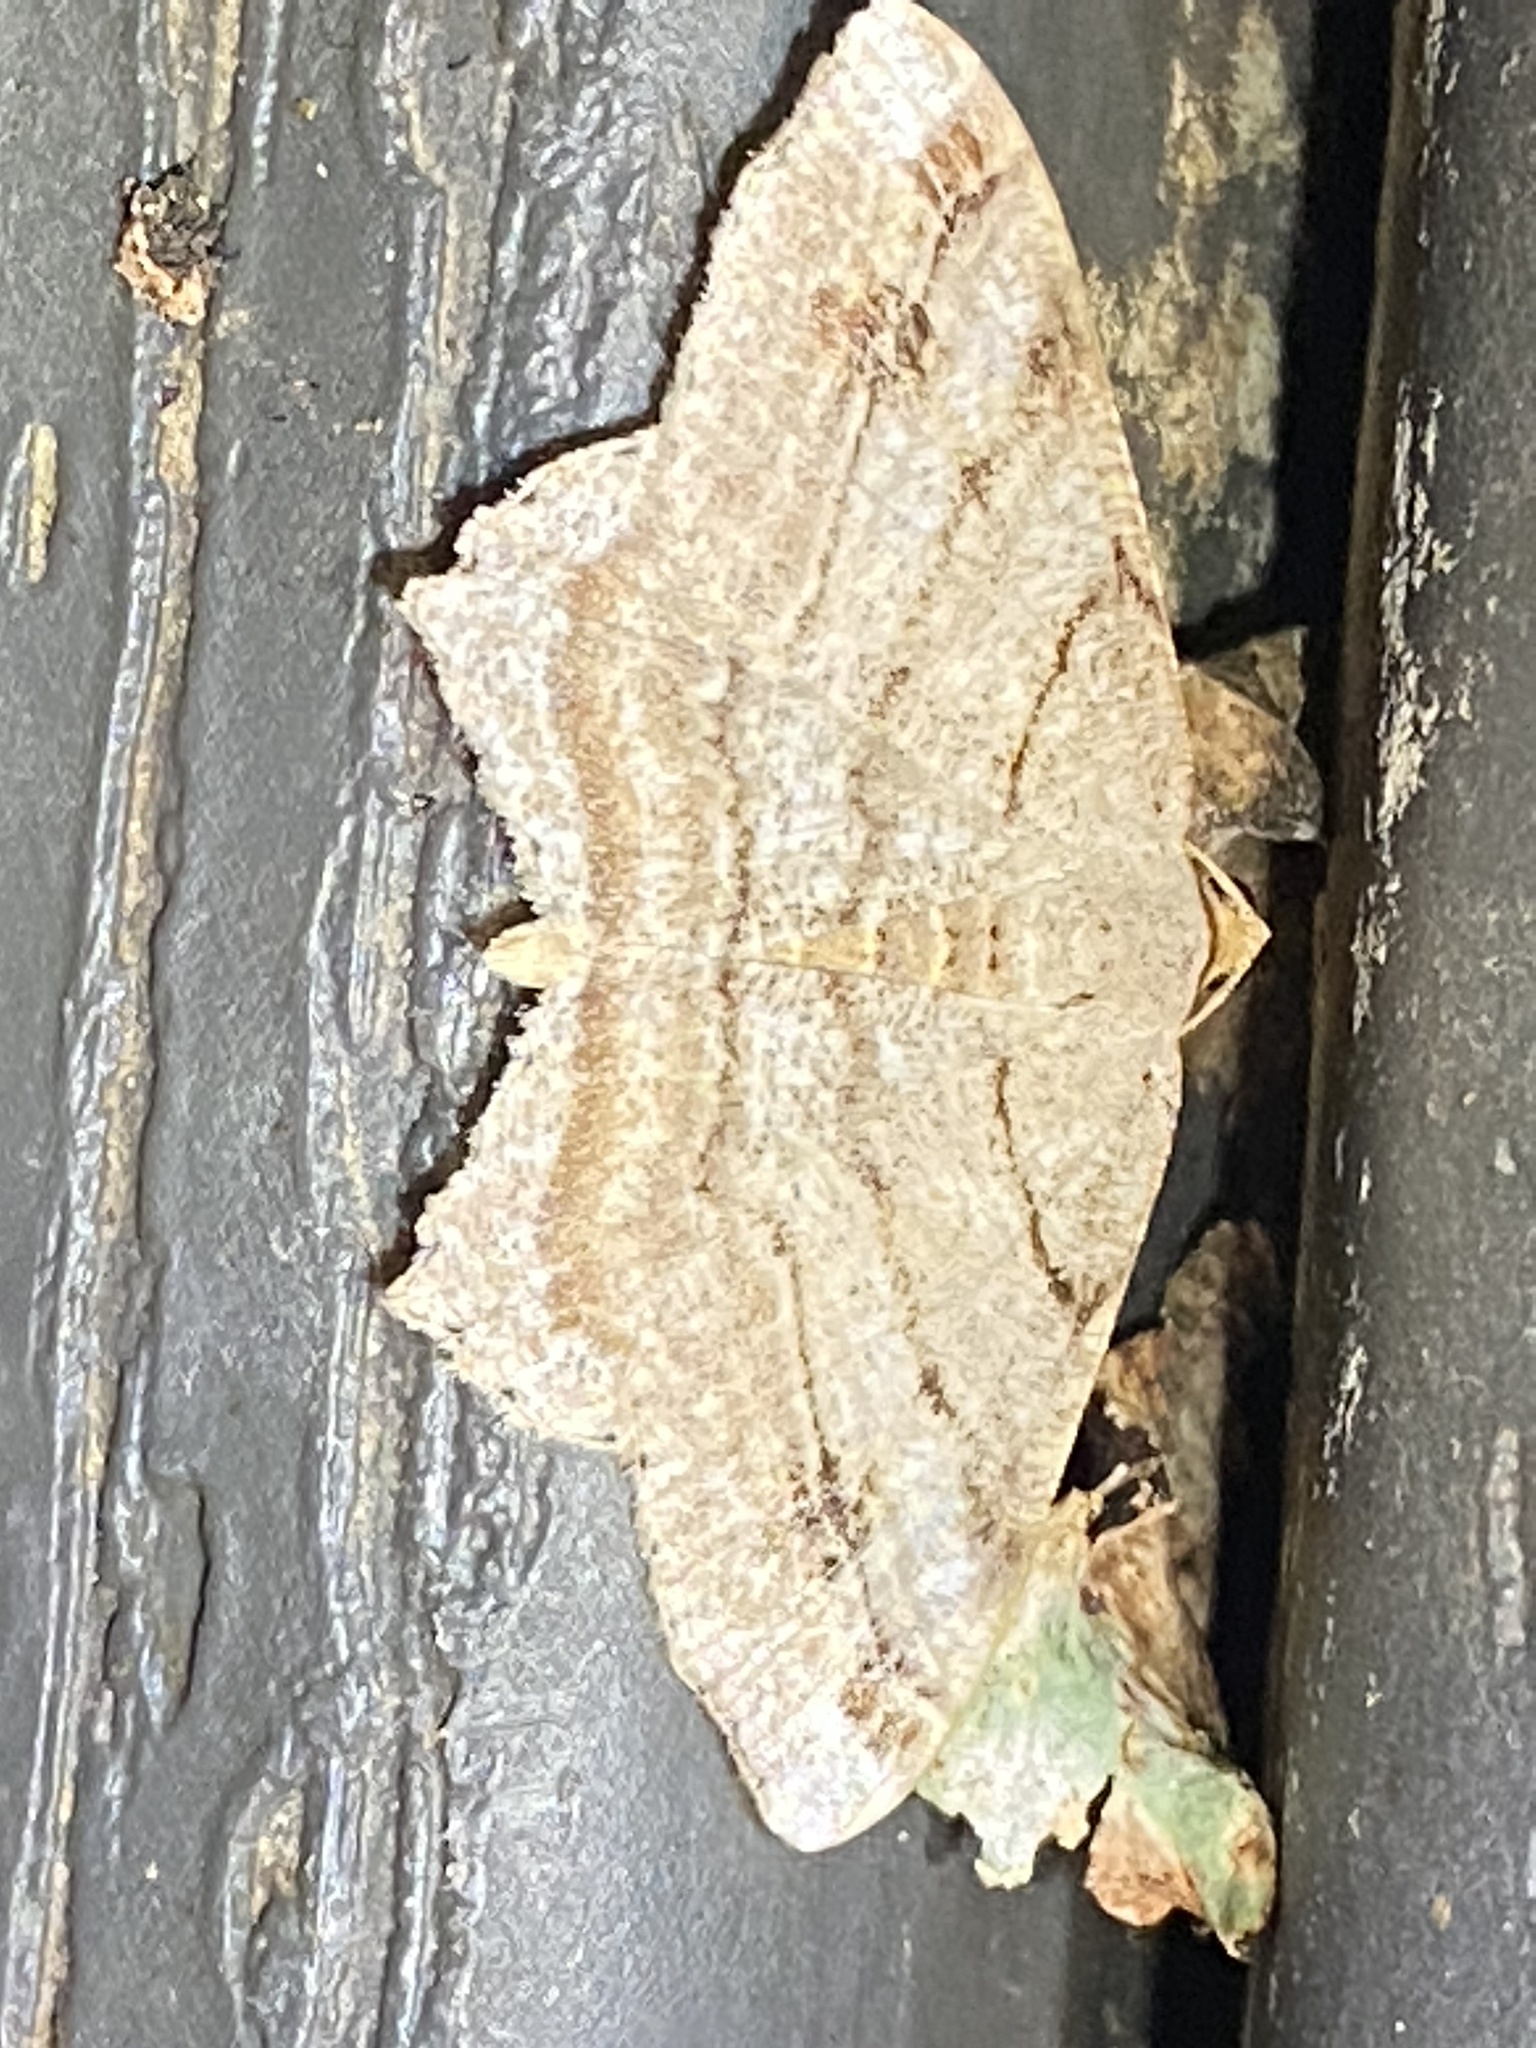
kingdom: Animalia
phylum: Arthropoda
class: Insecta
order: Lepidoptera
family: Geometridae
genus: Macaria
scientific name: Macaria multilineata
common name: Many-lined angle
